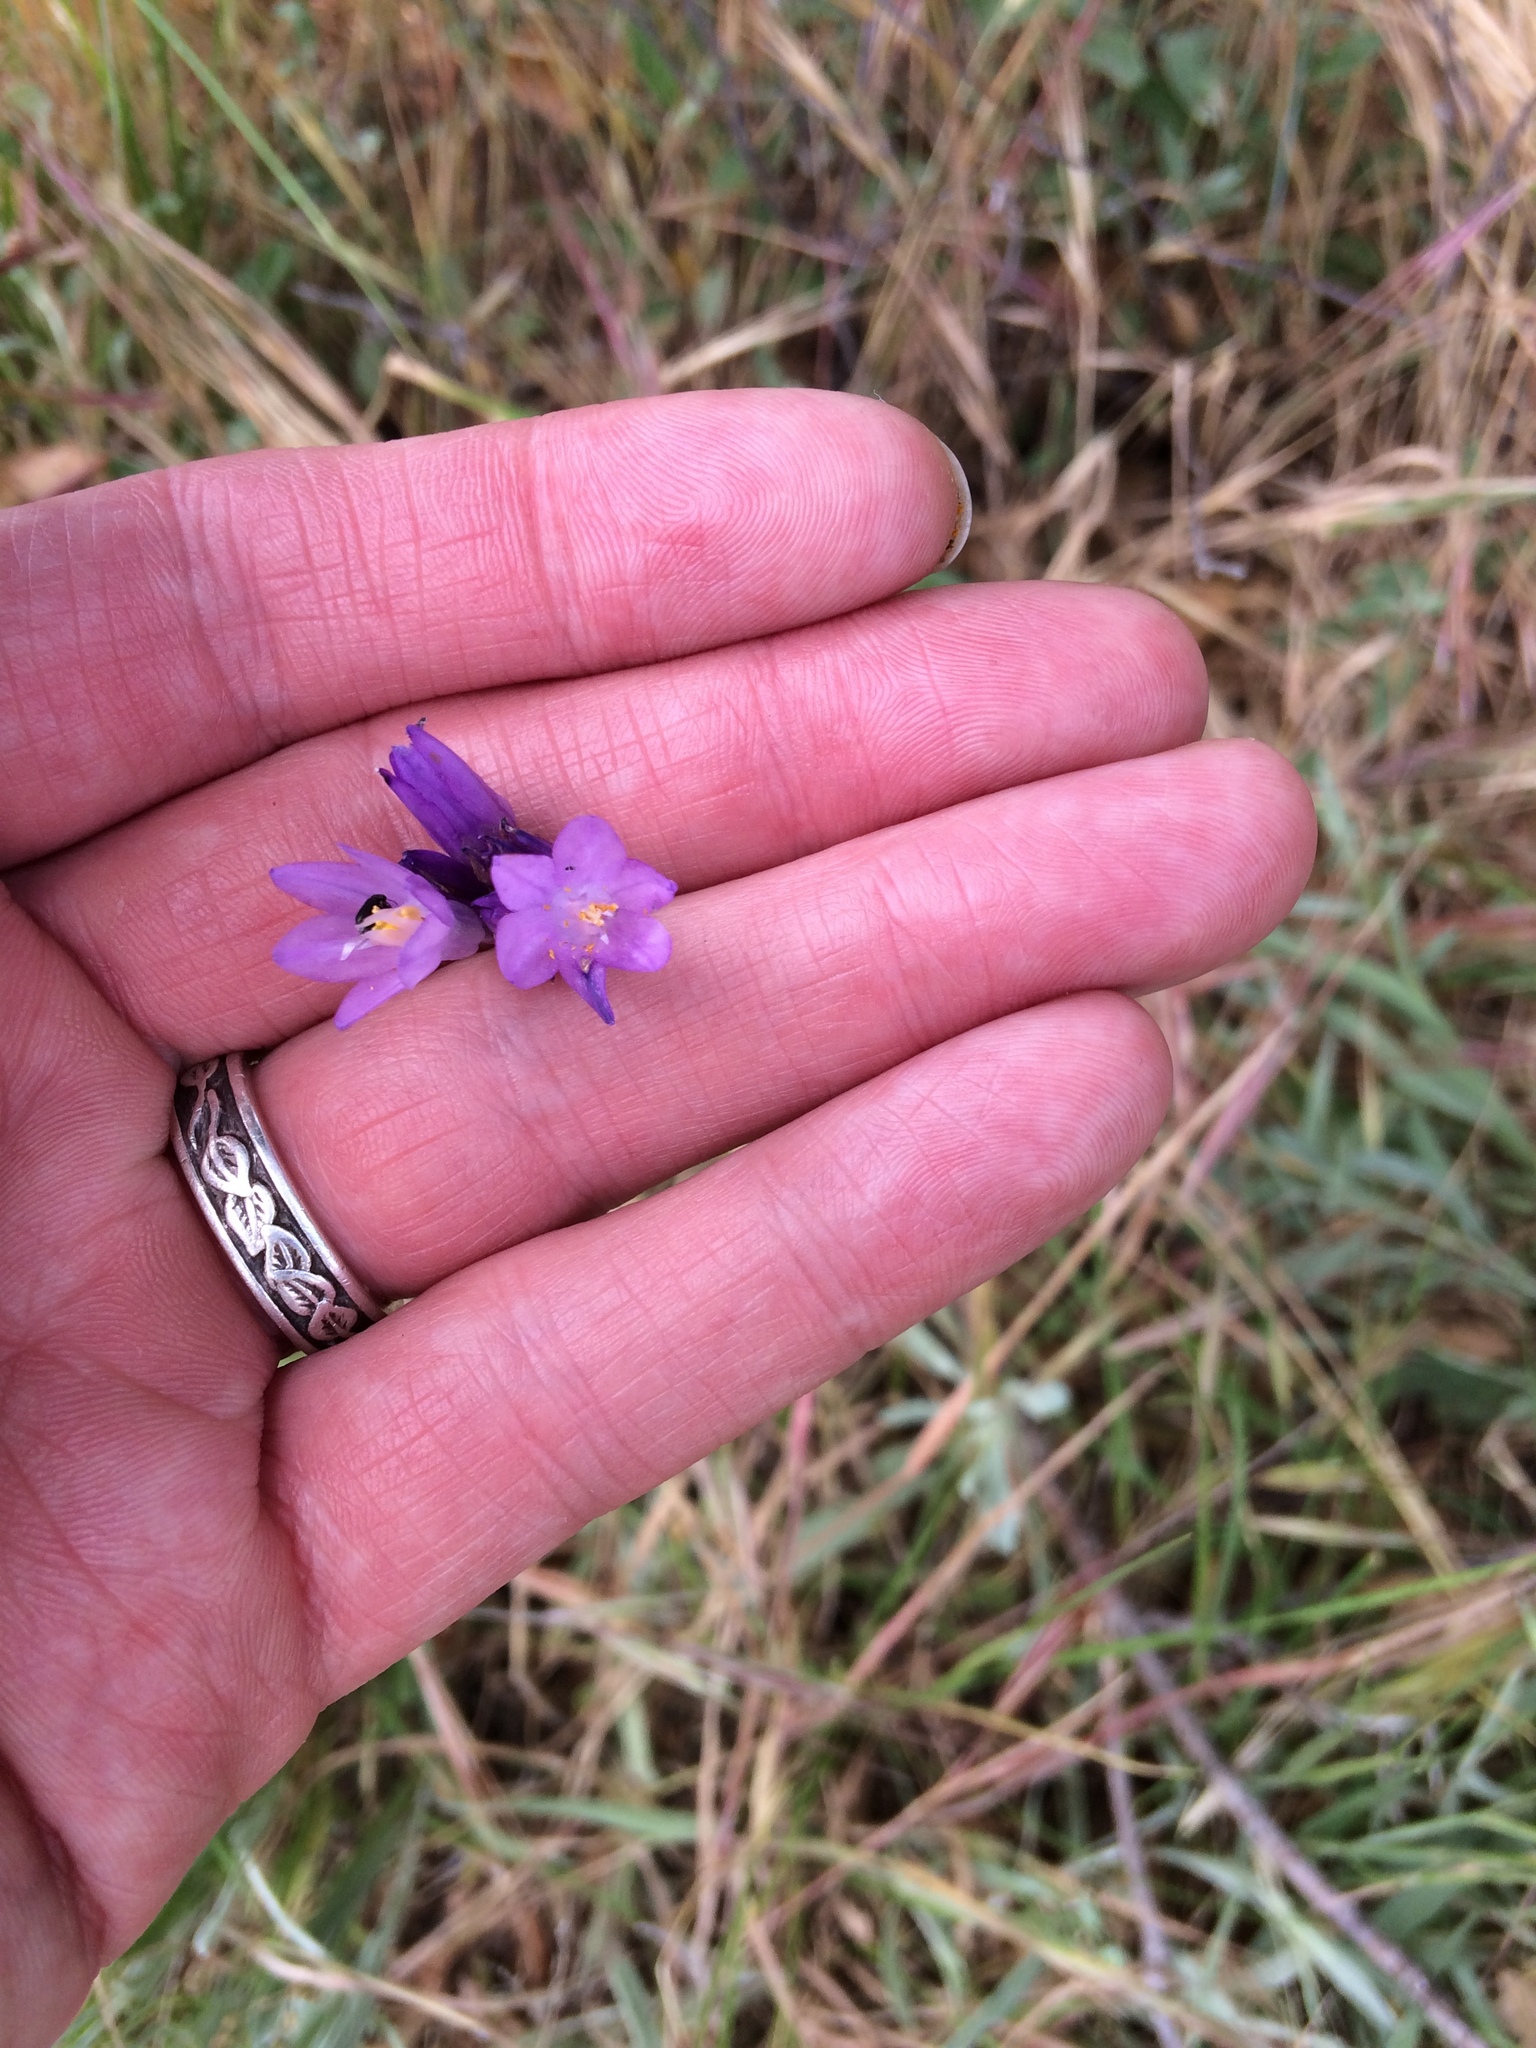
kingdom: Plantae
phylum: Tracheophyta
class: Liliopsida
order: Asparagales
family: Asparagaceae
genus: Dipterostemon
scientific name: Dipterostemon capitatus
